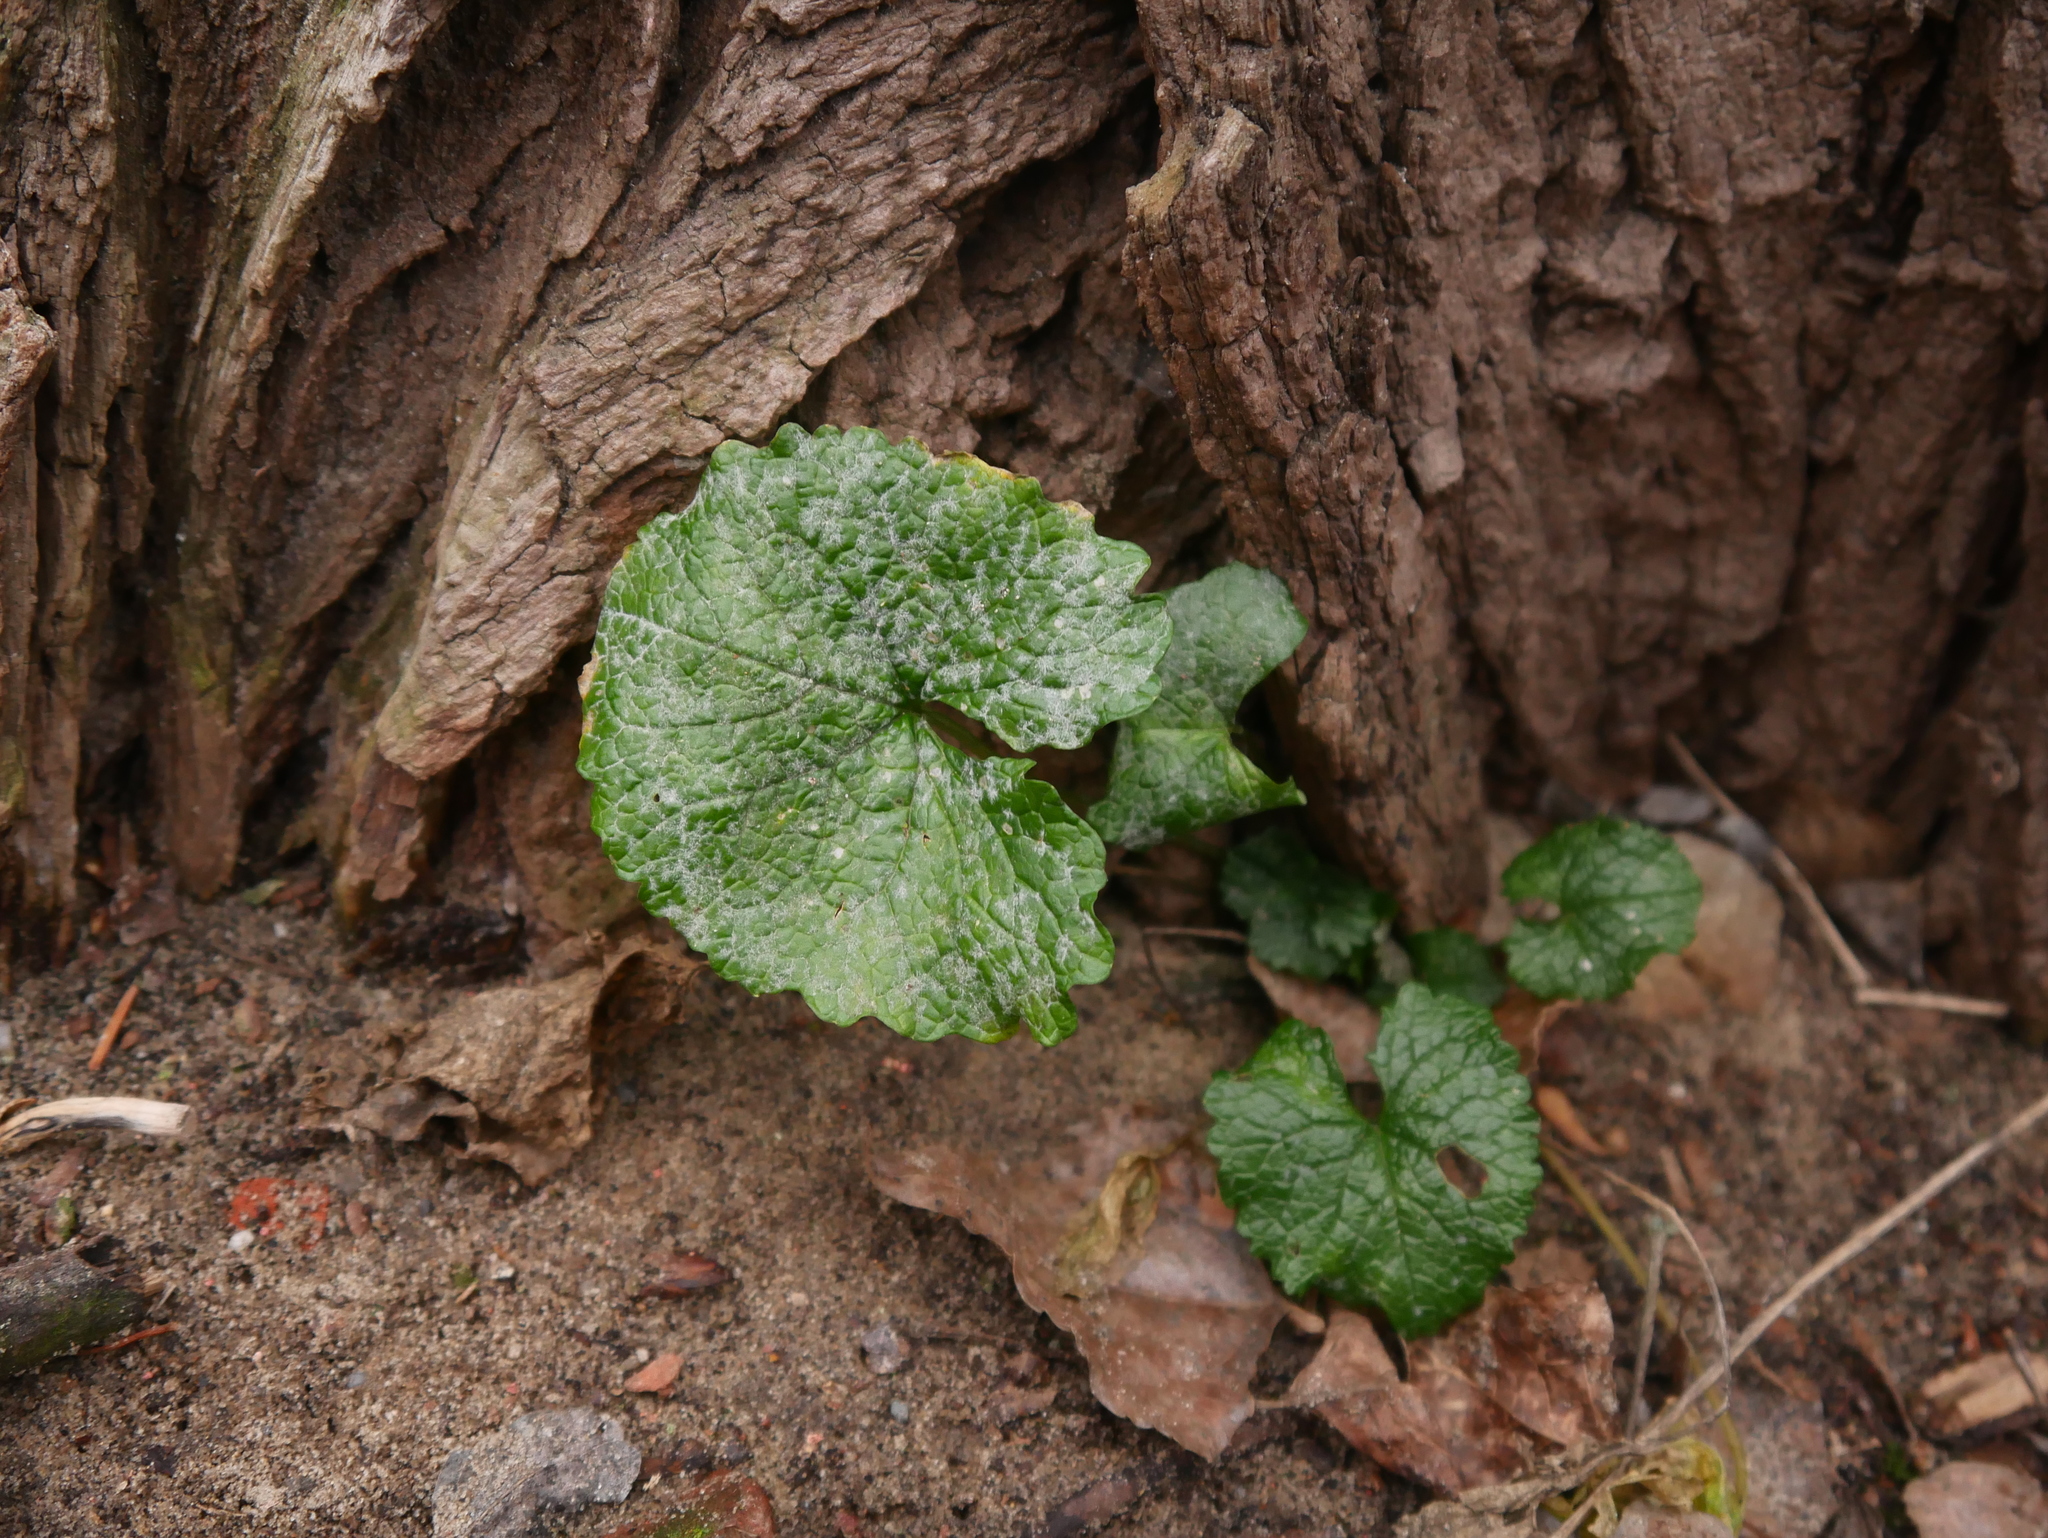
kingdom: Plantae
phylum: Tracheophyta
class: Magnoliopsida
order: Brassicales
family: Brassicaceae
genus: Alliaria
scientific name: Alliaria petiolata
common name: Garlic mustard
